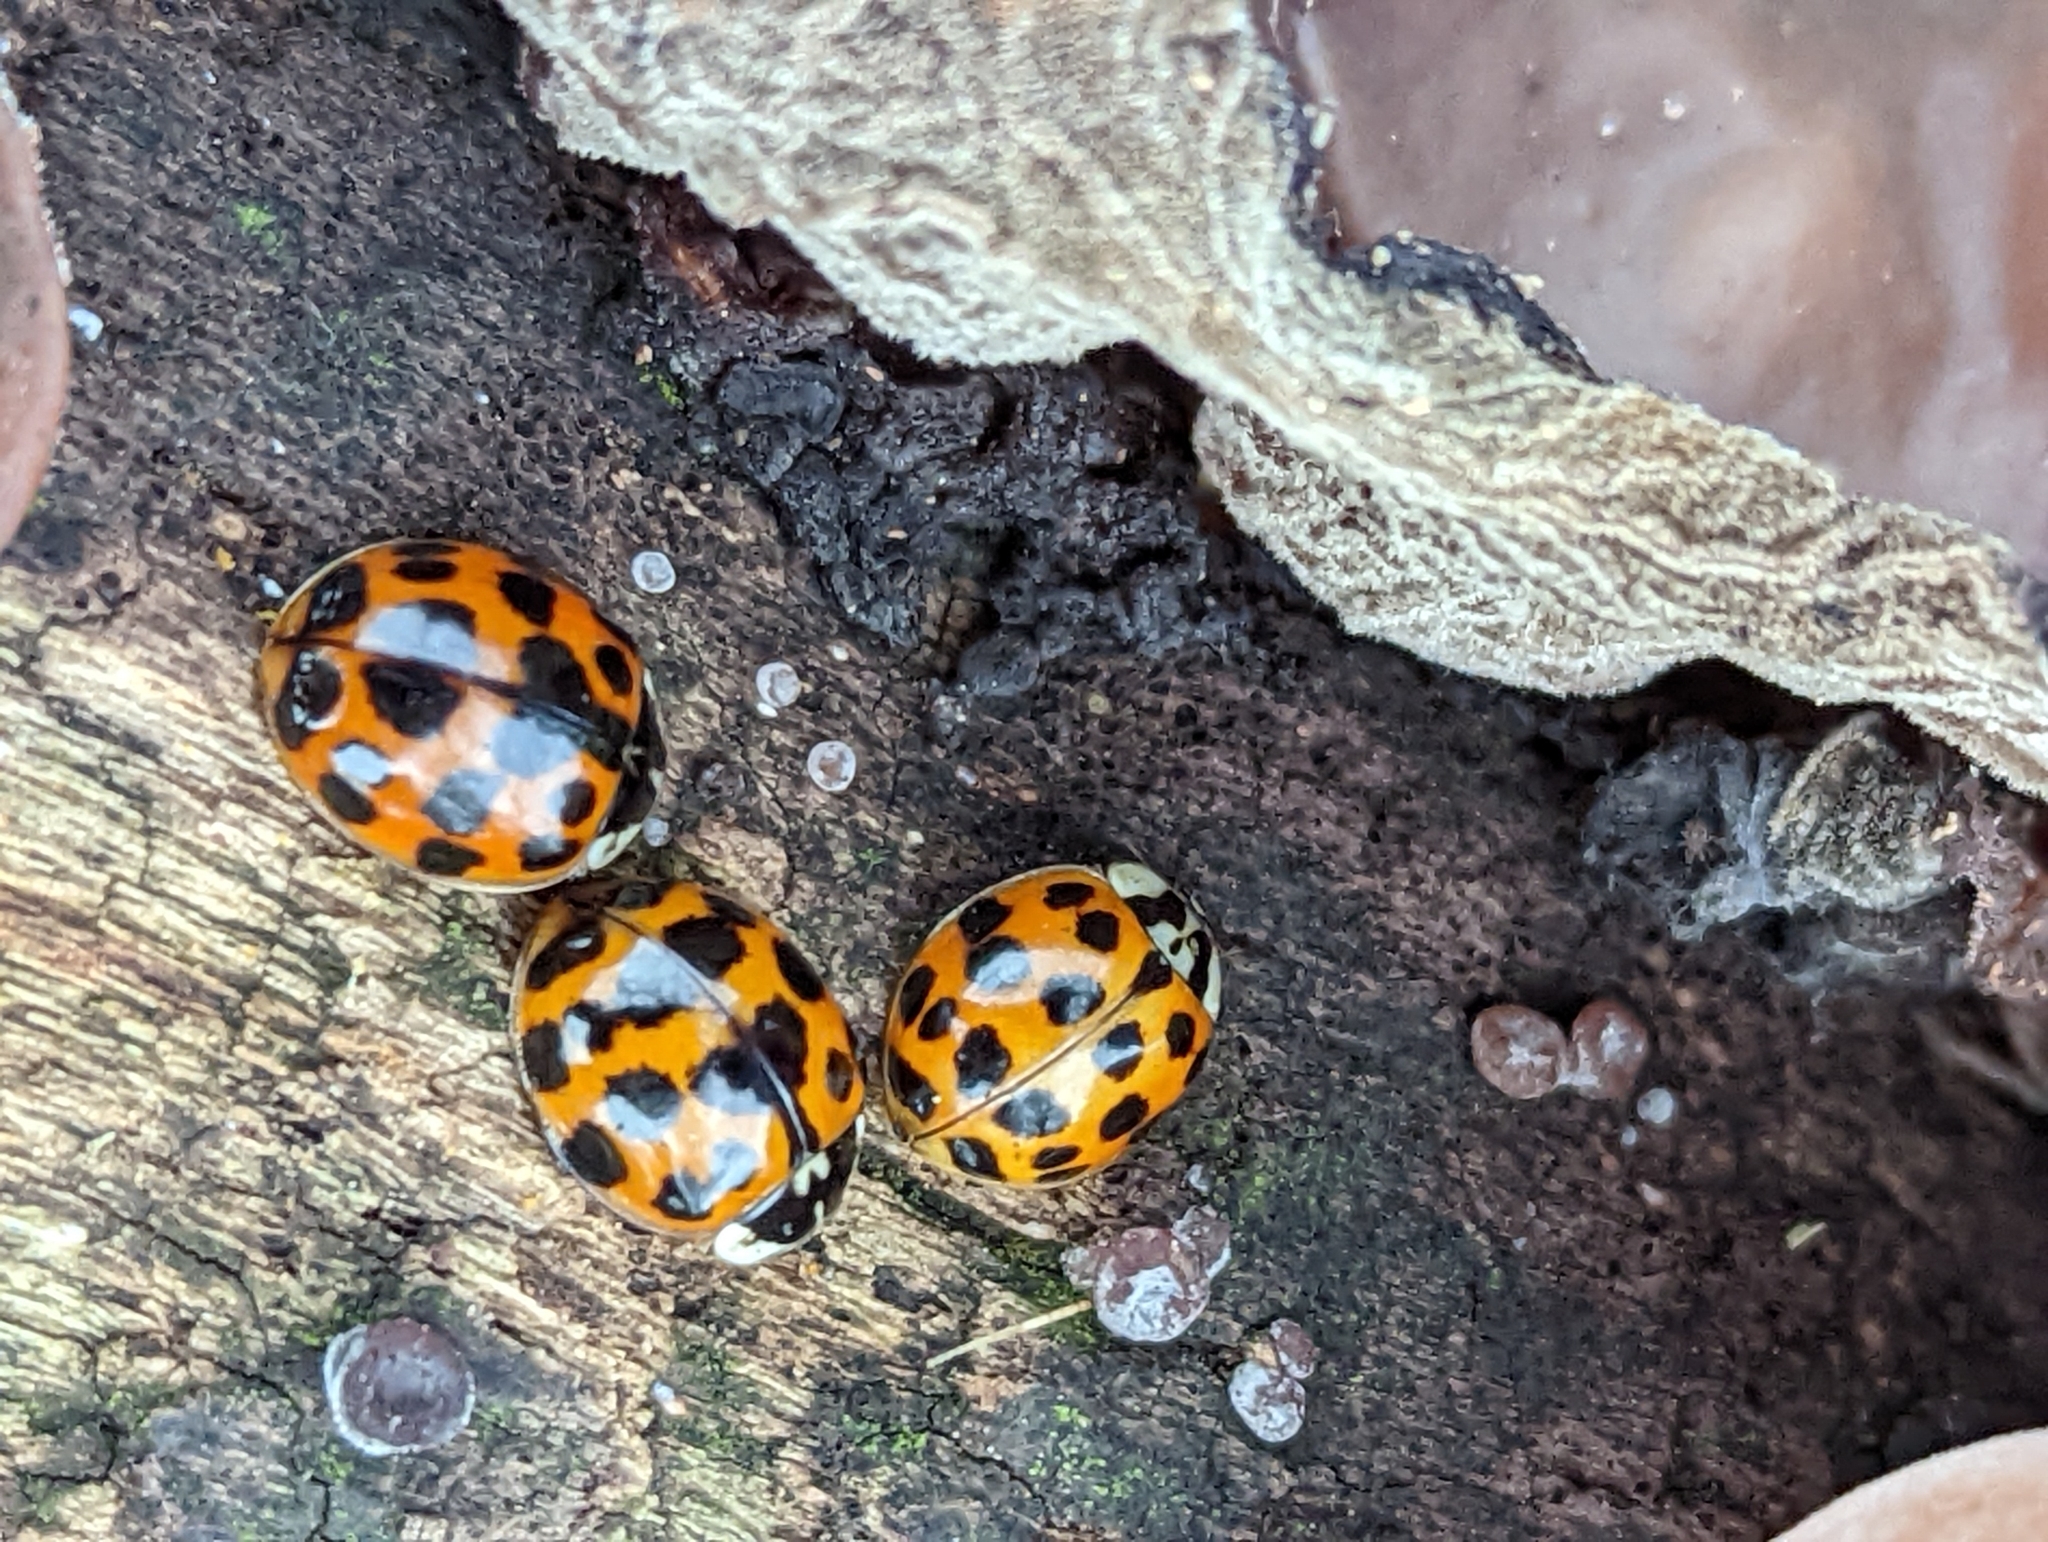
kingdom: Animalia
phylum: Arthropoda
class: Insecta
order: Coleoptera
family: Coccinellidae
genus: Harmonia
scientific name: Harmonia axyridis
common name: Harlequin ladybird
